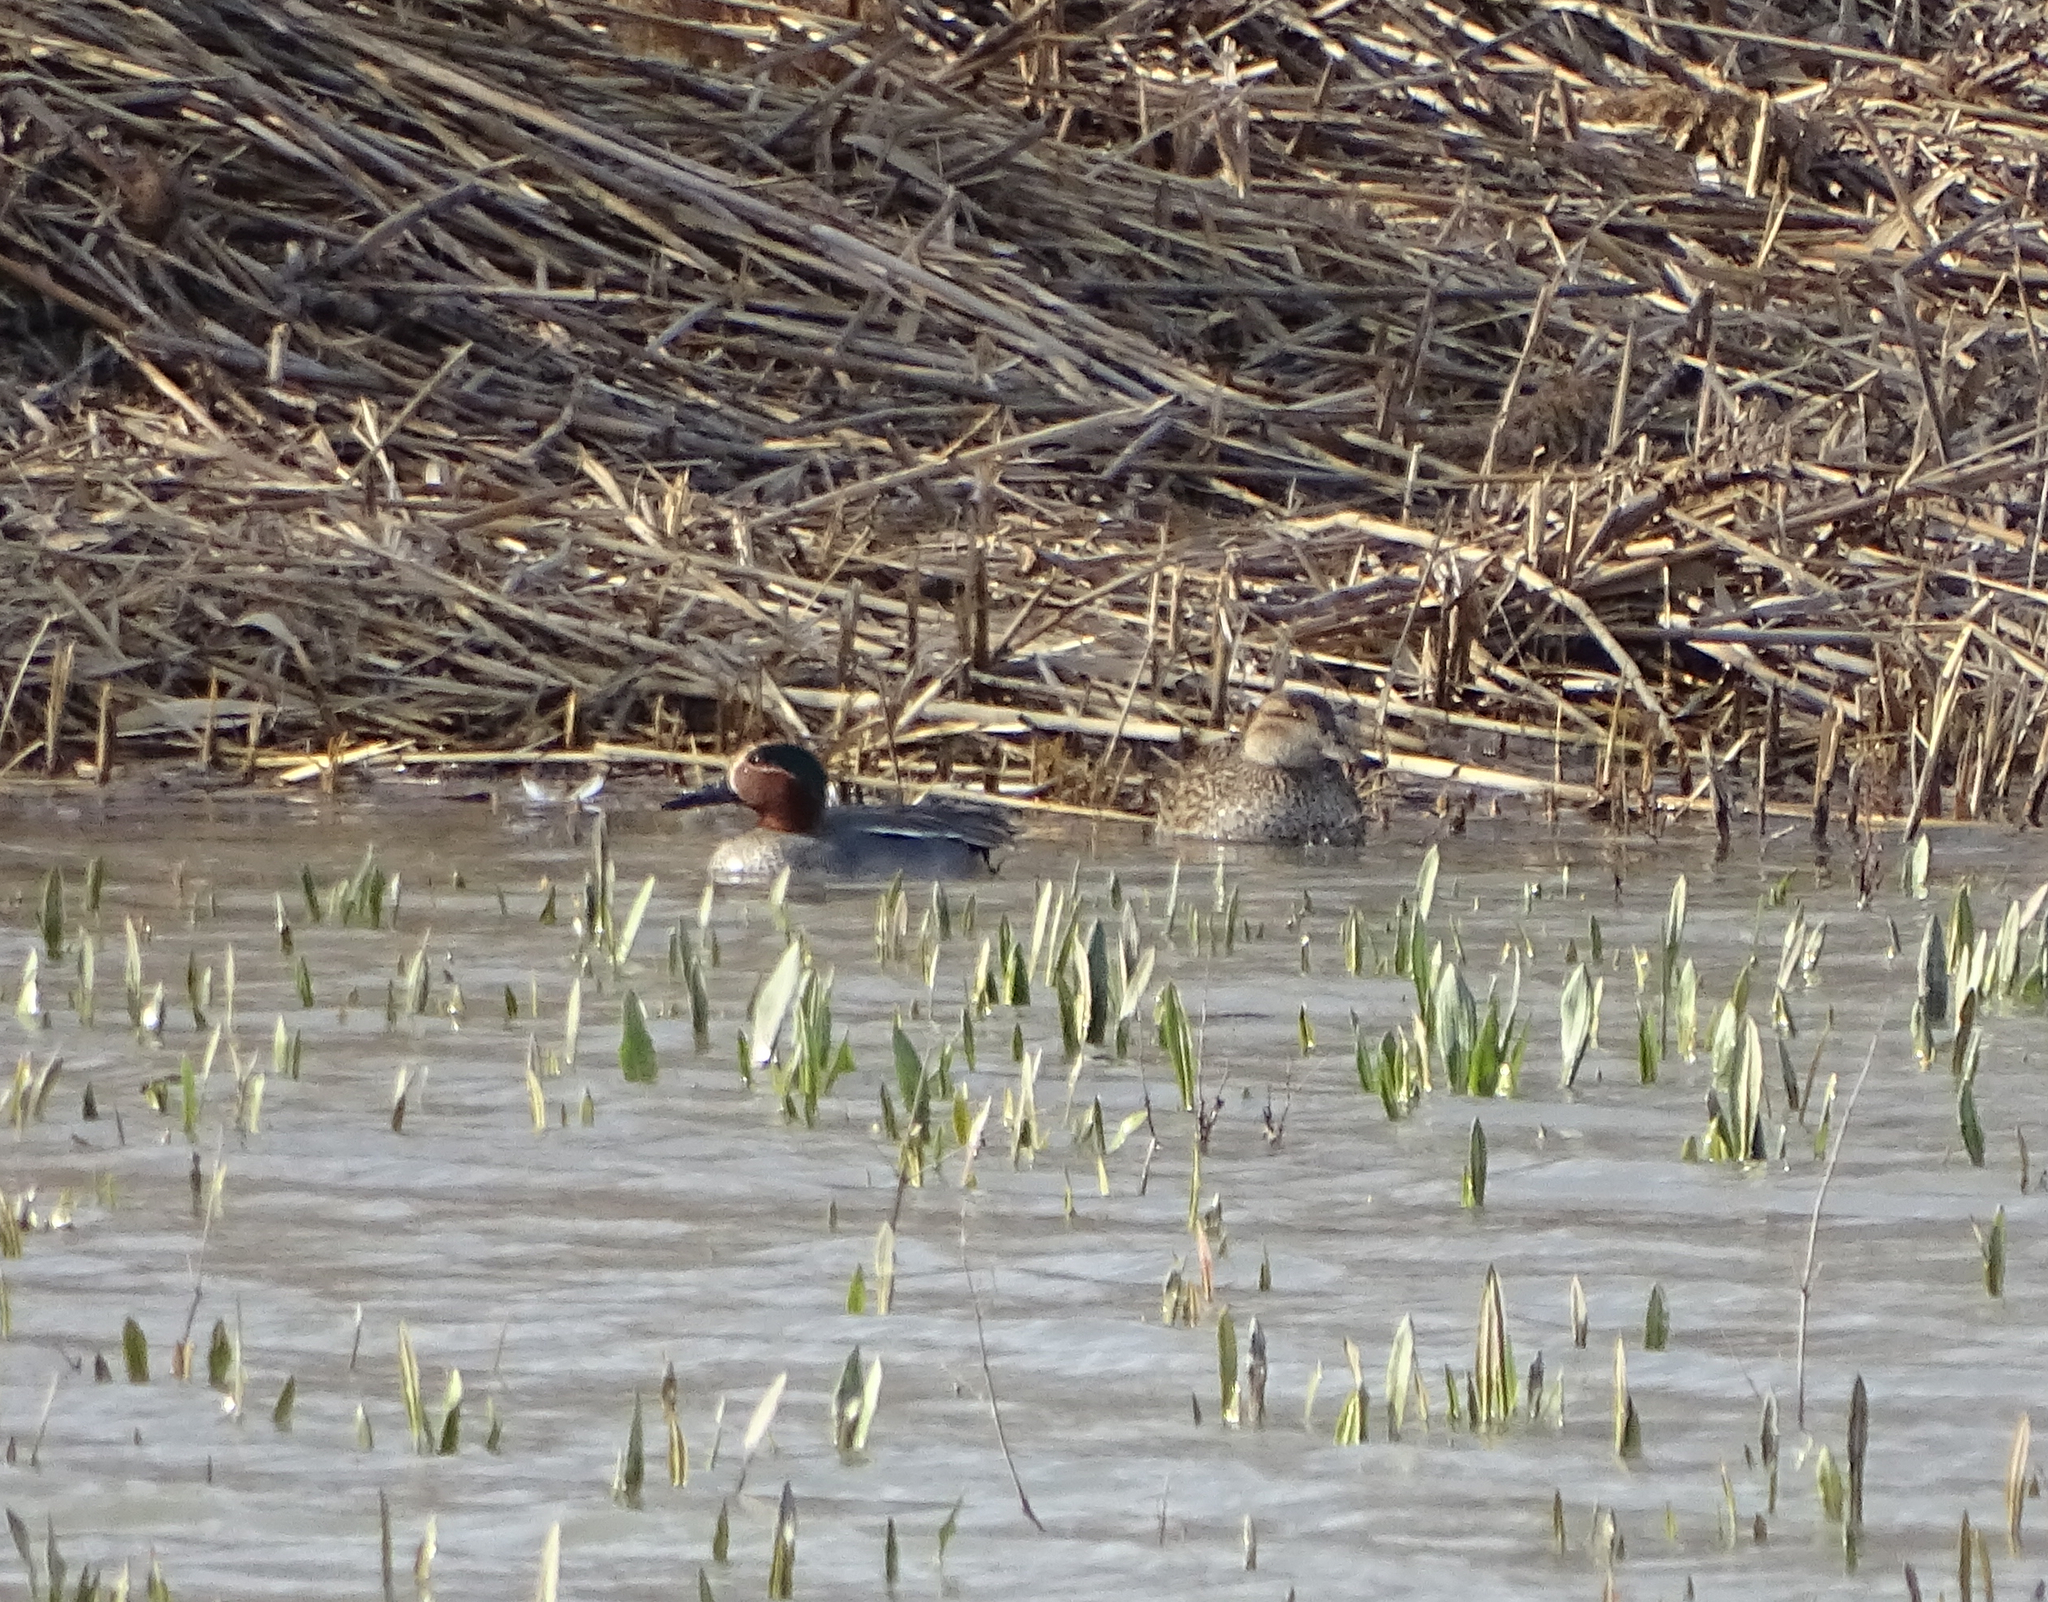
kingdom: Animalia
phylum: Chordata
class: Aves
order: Anseriformes
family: Anatidae
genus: Anas
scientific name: Anas crecca
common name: Eurasian teal
